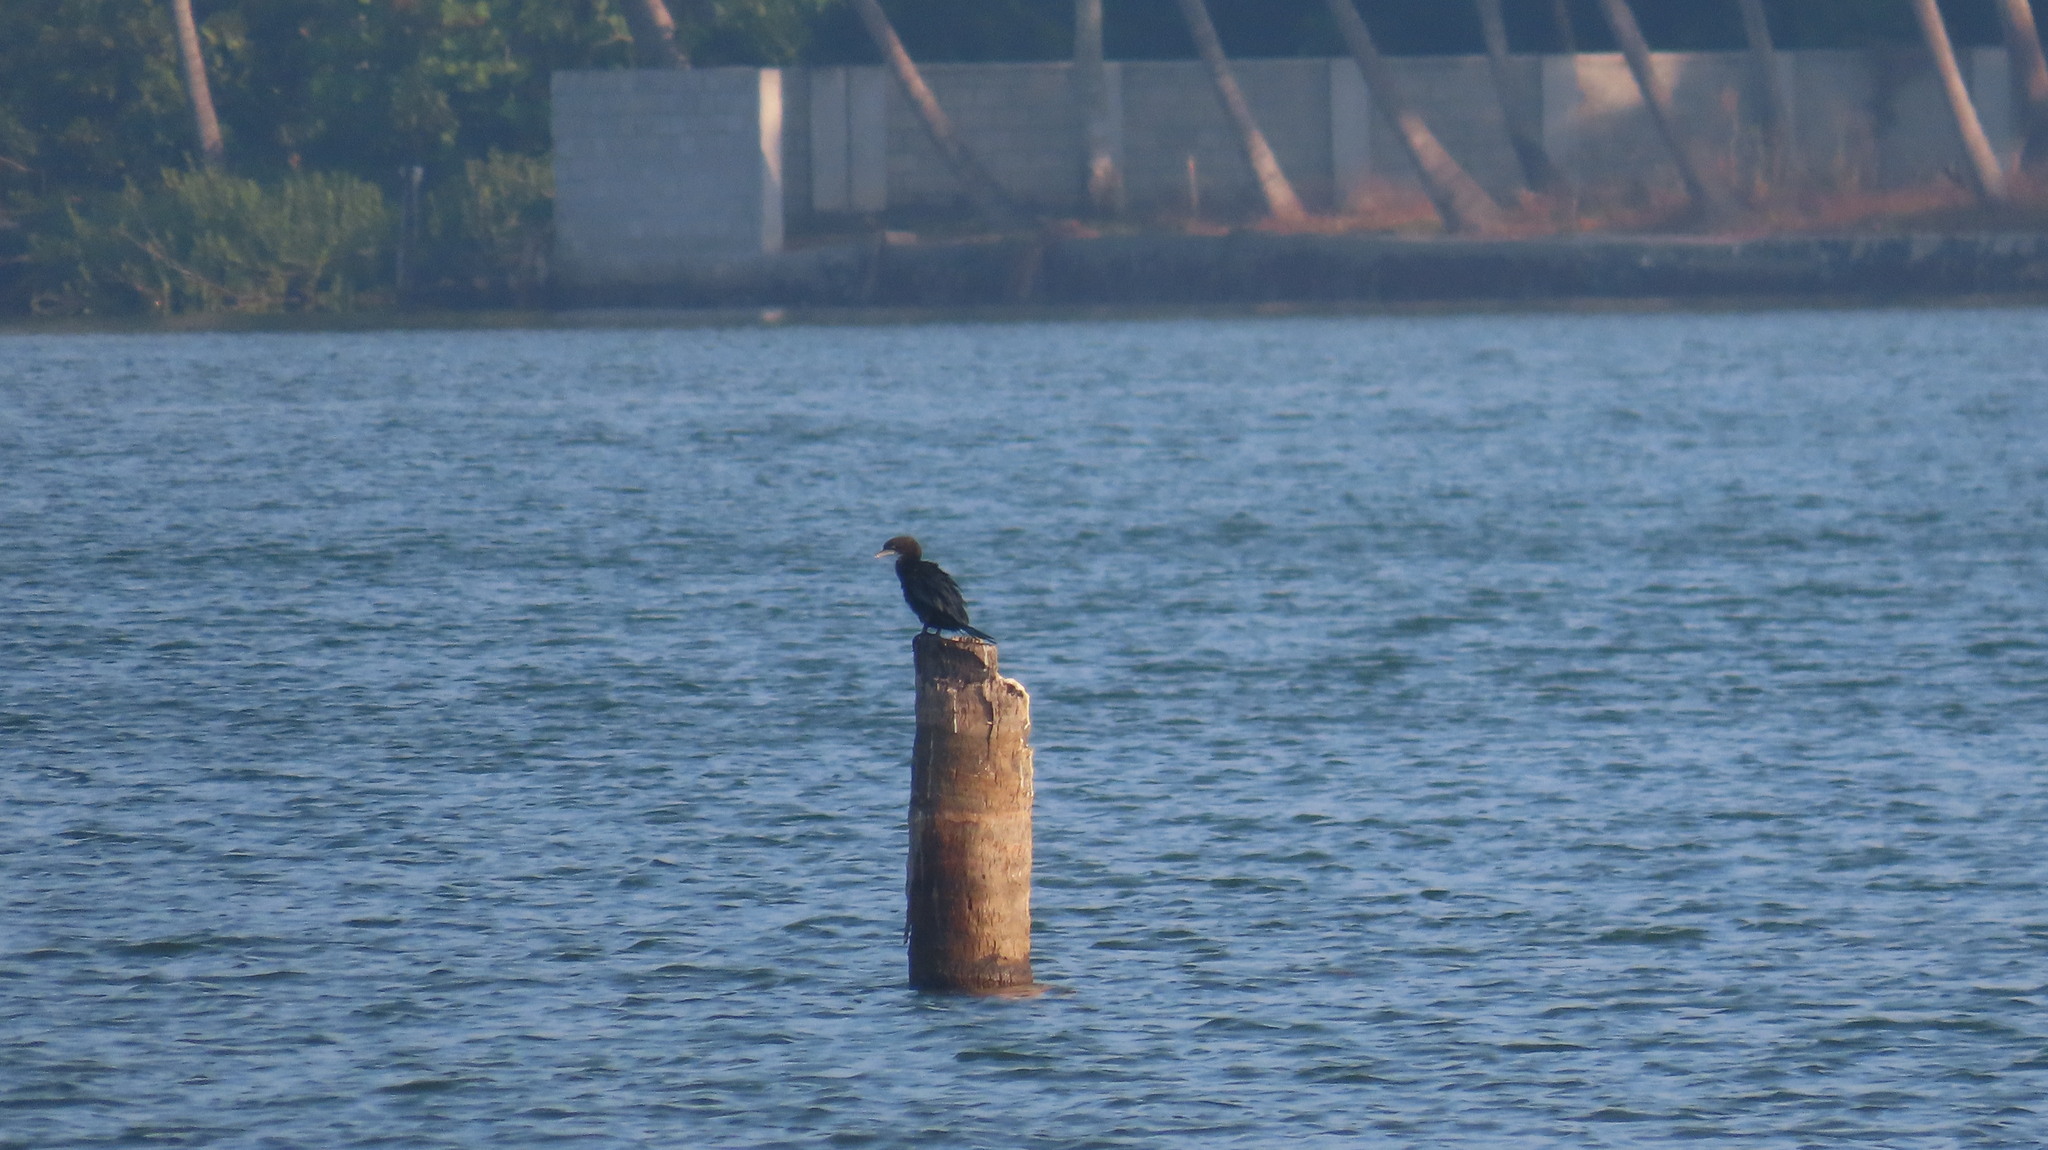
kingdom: Animalia
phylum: Chordata
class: Aves
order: Suliformes
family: Phalacrocoracidae
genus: Microcarbo
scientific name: Microcarbo niger
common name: Little cormorant
